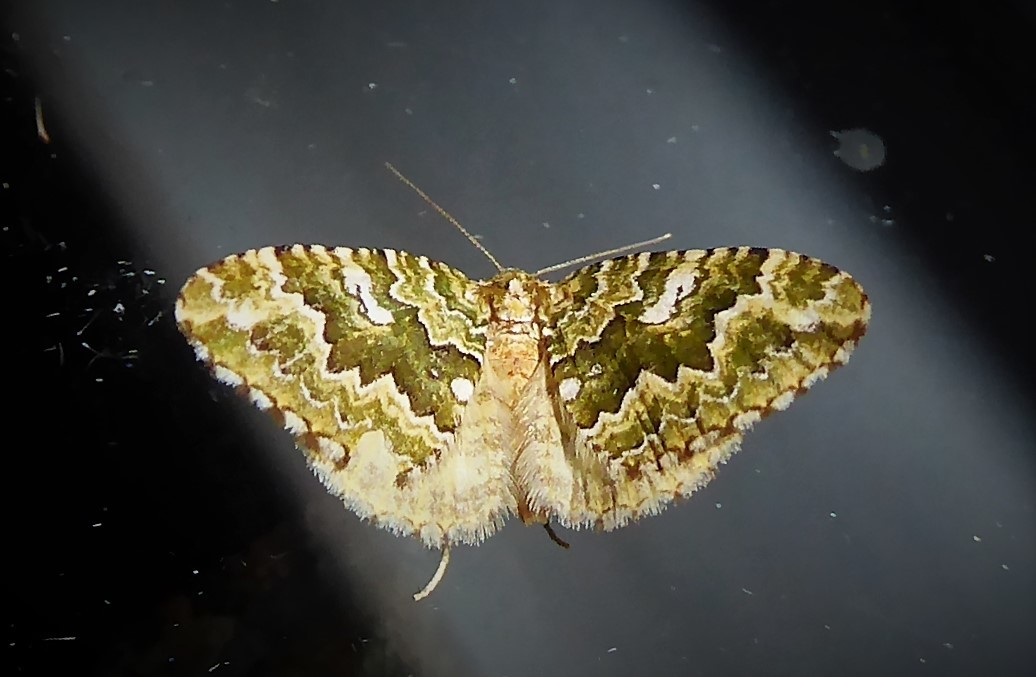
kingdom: Animalia
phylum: Arthropoda
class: Insecta
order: Lepidoptera
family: Geometridae
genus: Asaphodes
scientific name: Asaphodes beata
